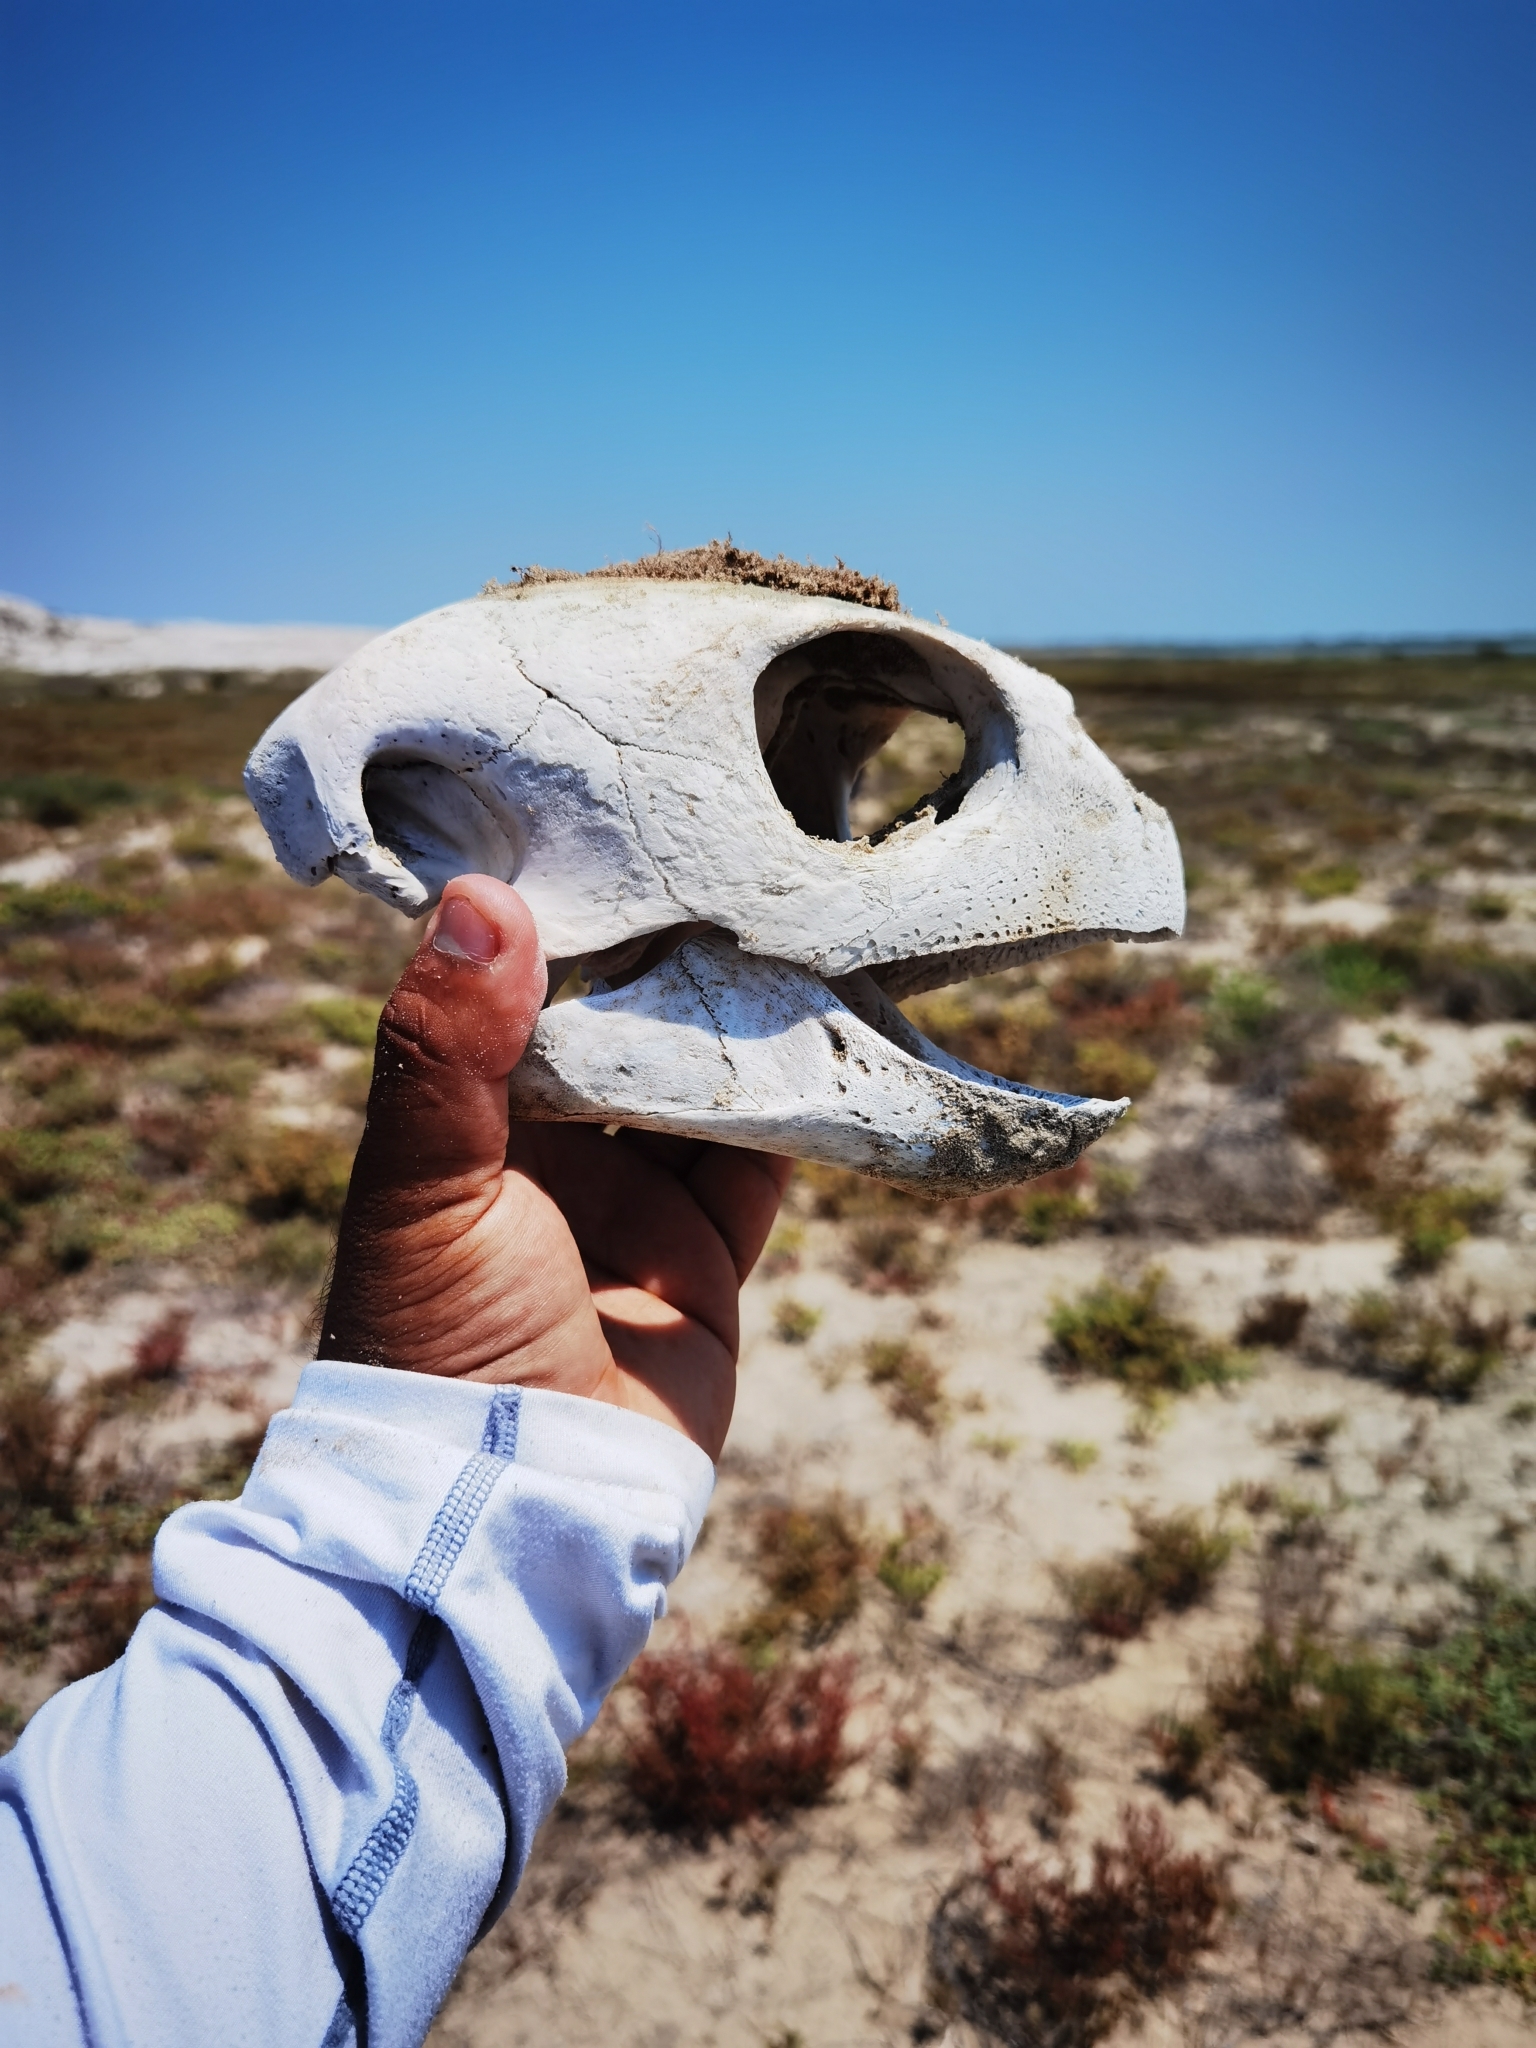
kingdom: Animalia
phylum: Chordata
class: Testudines
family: Cheloniidae
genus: Chelonia
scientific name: Chelonia mydas
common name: Green turtle
